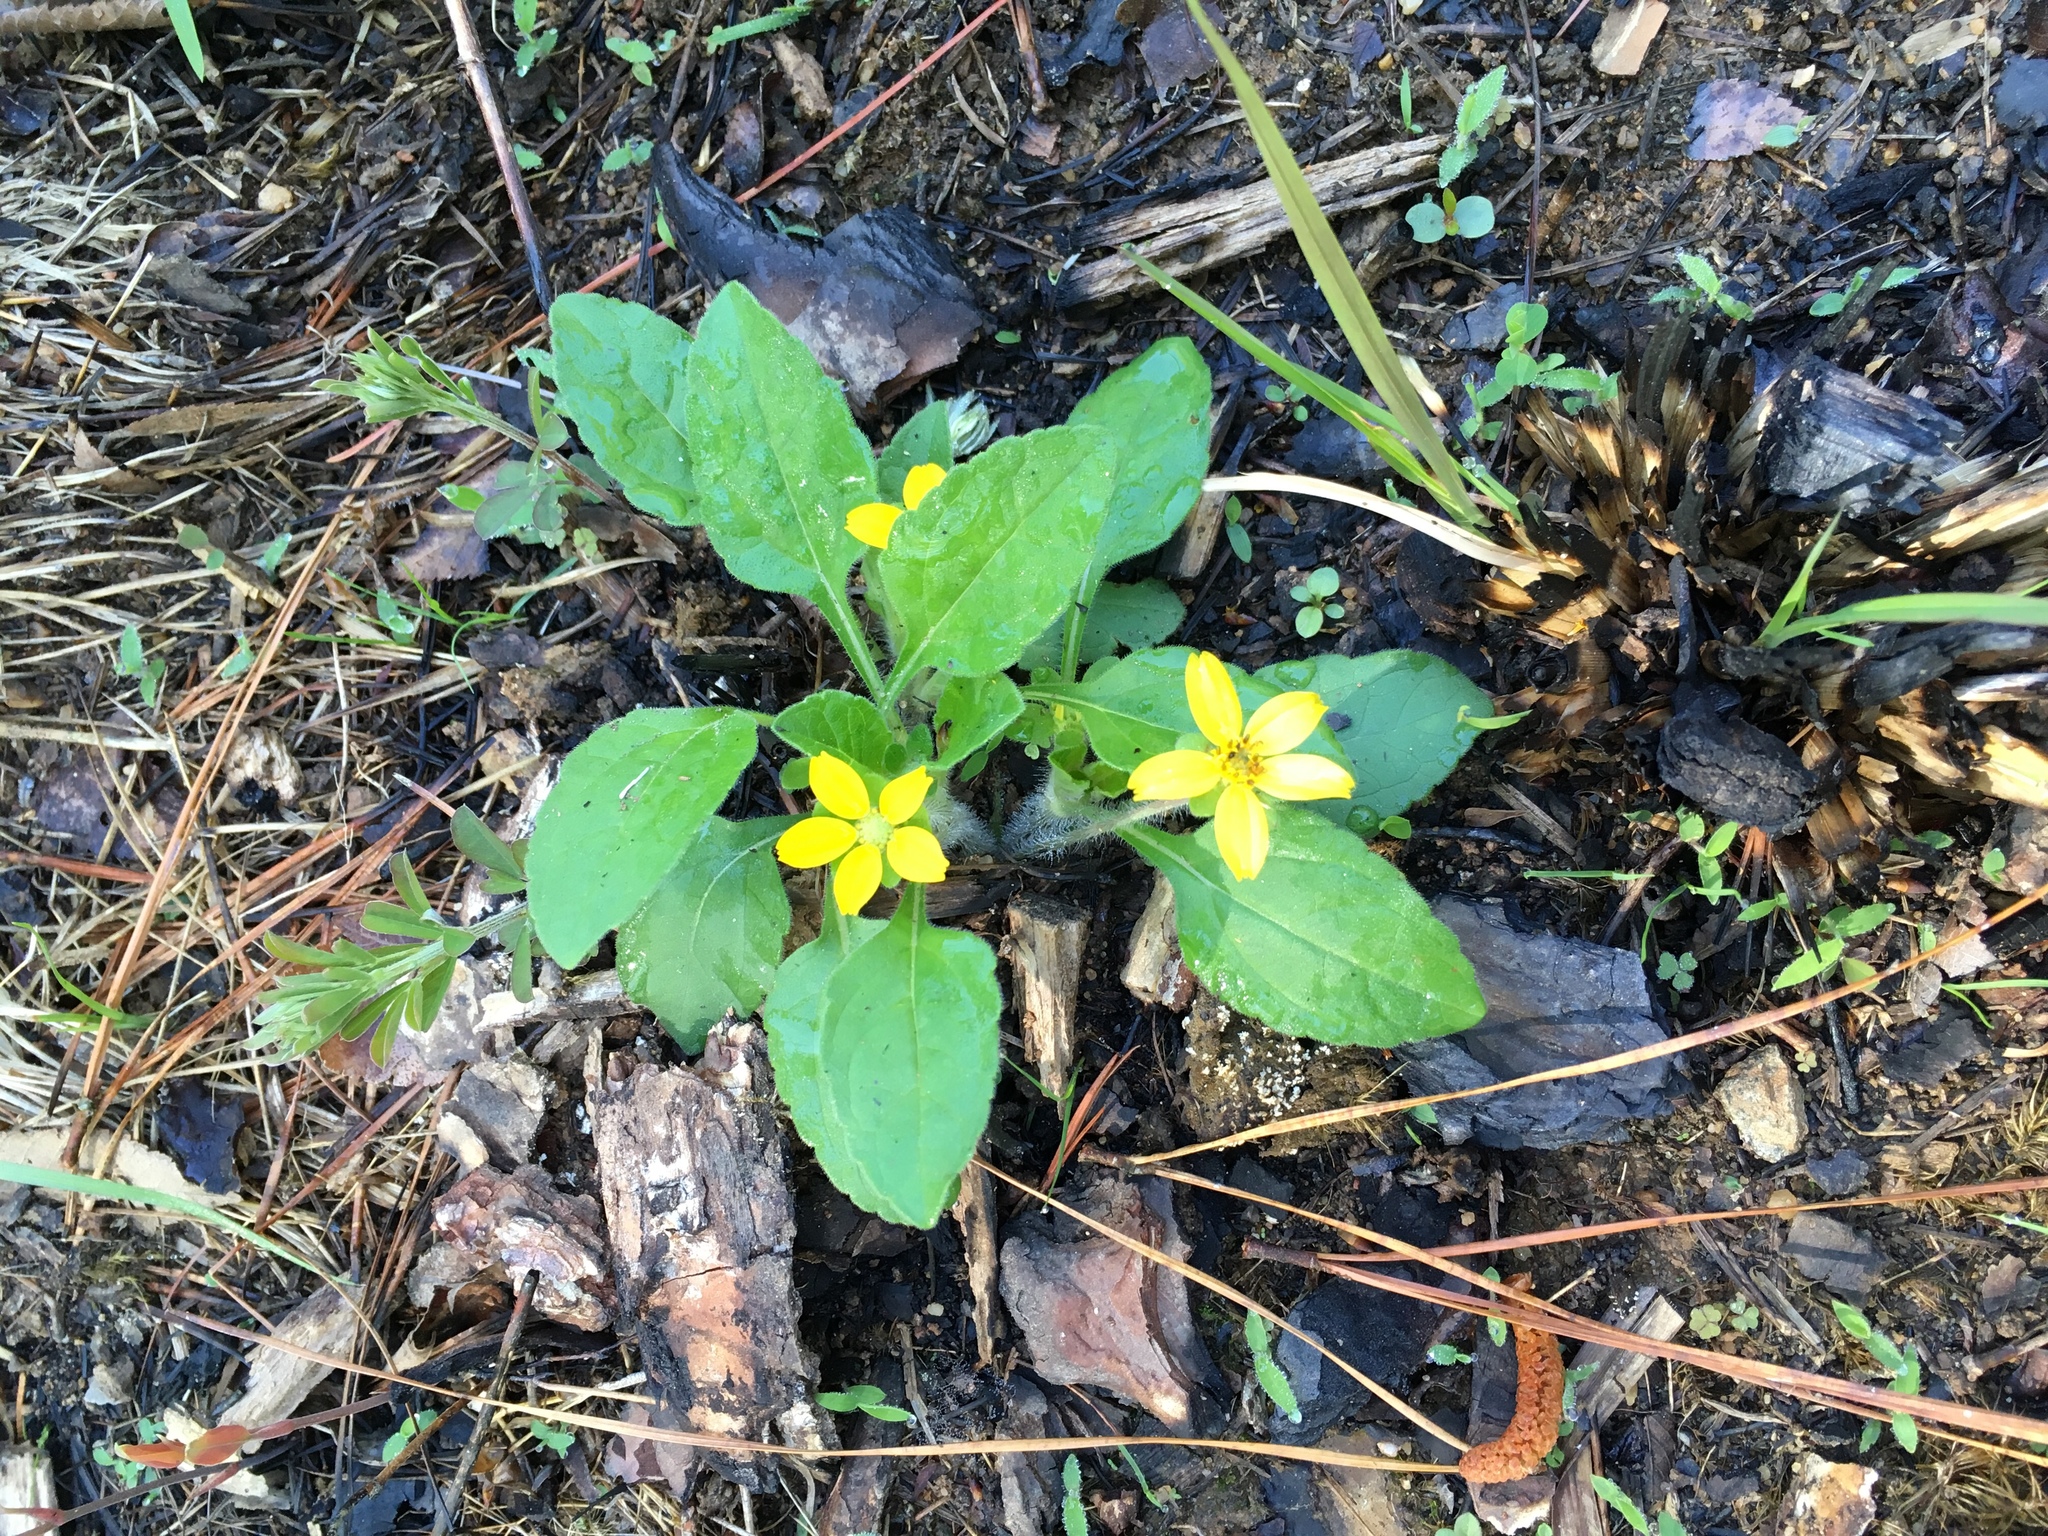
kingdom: Plantae
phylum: Tracheophyta
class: Magnoliopsida
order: Asterales
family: Asteraceae
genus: Chrysogonum
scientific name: Chrysogonum virginianum
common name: Golden-knee
